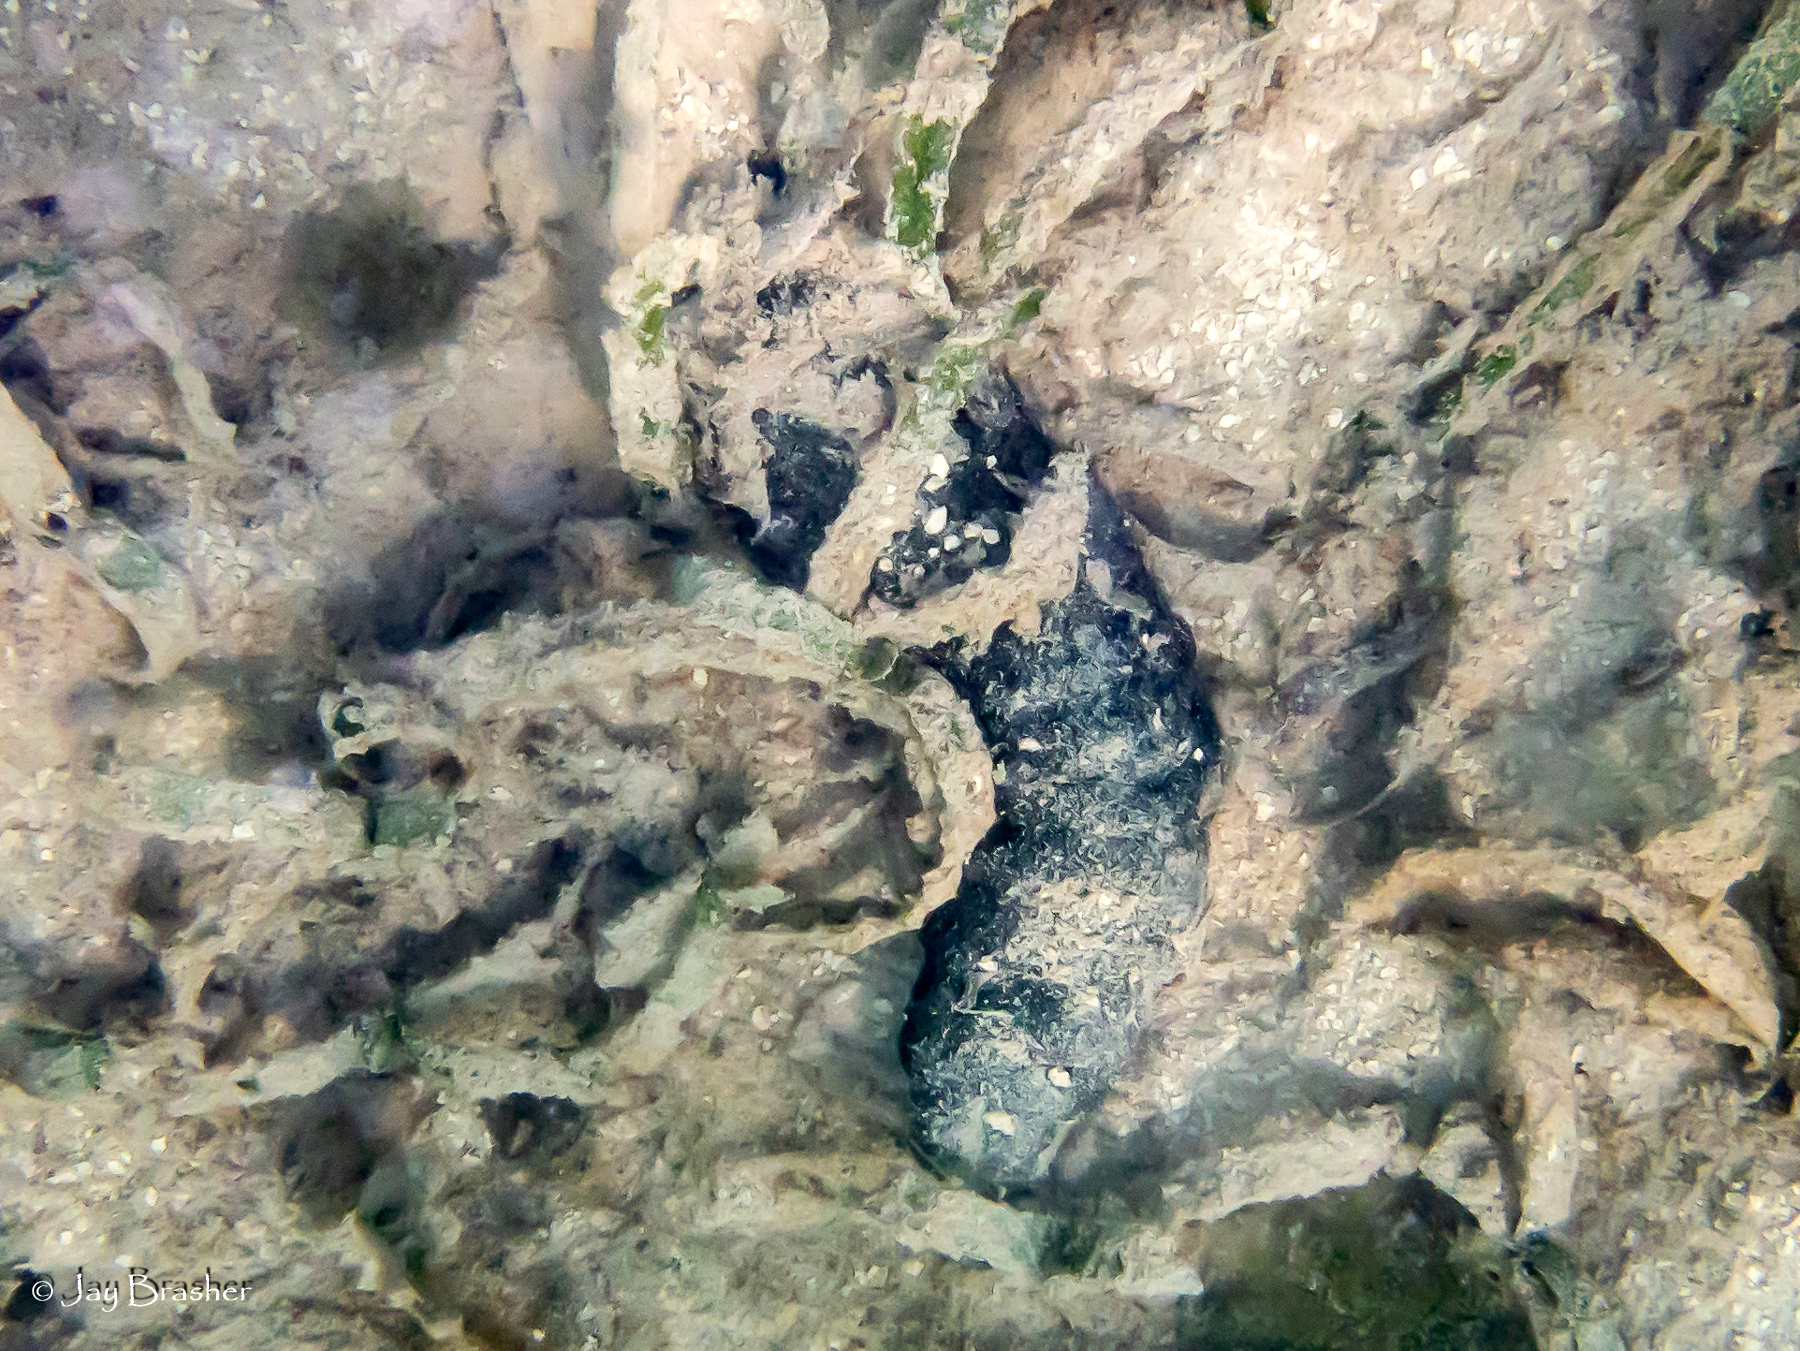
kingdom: Animalia
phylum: Echinodermata
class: Holothuroidea
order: Holothuriida
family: Holothuriidae
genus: Holothuria
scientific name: Holothuria mexicana
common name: Donkey dung sea cucumber
